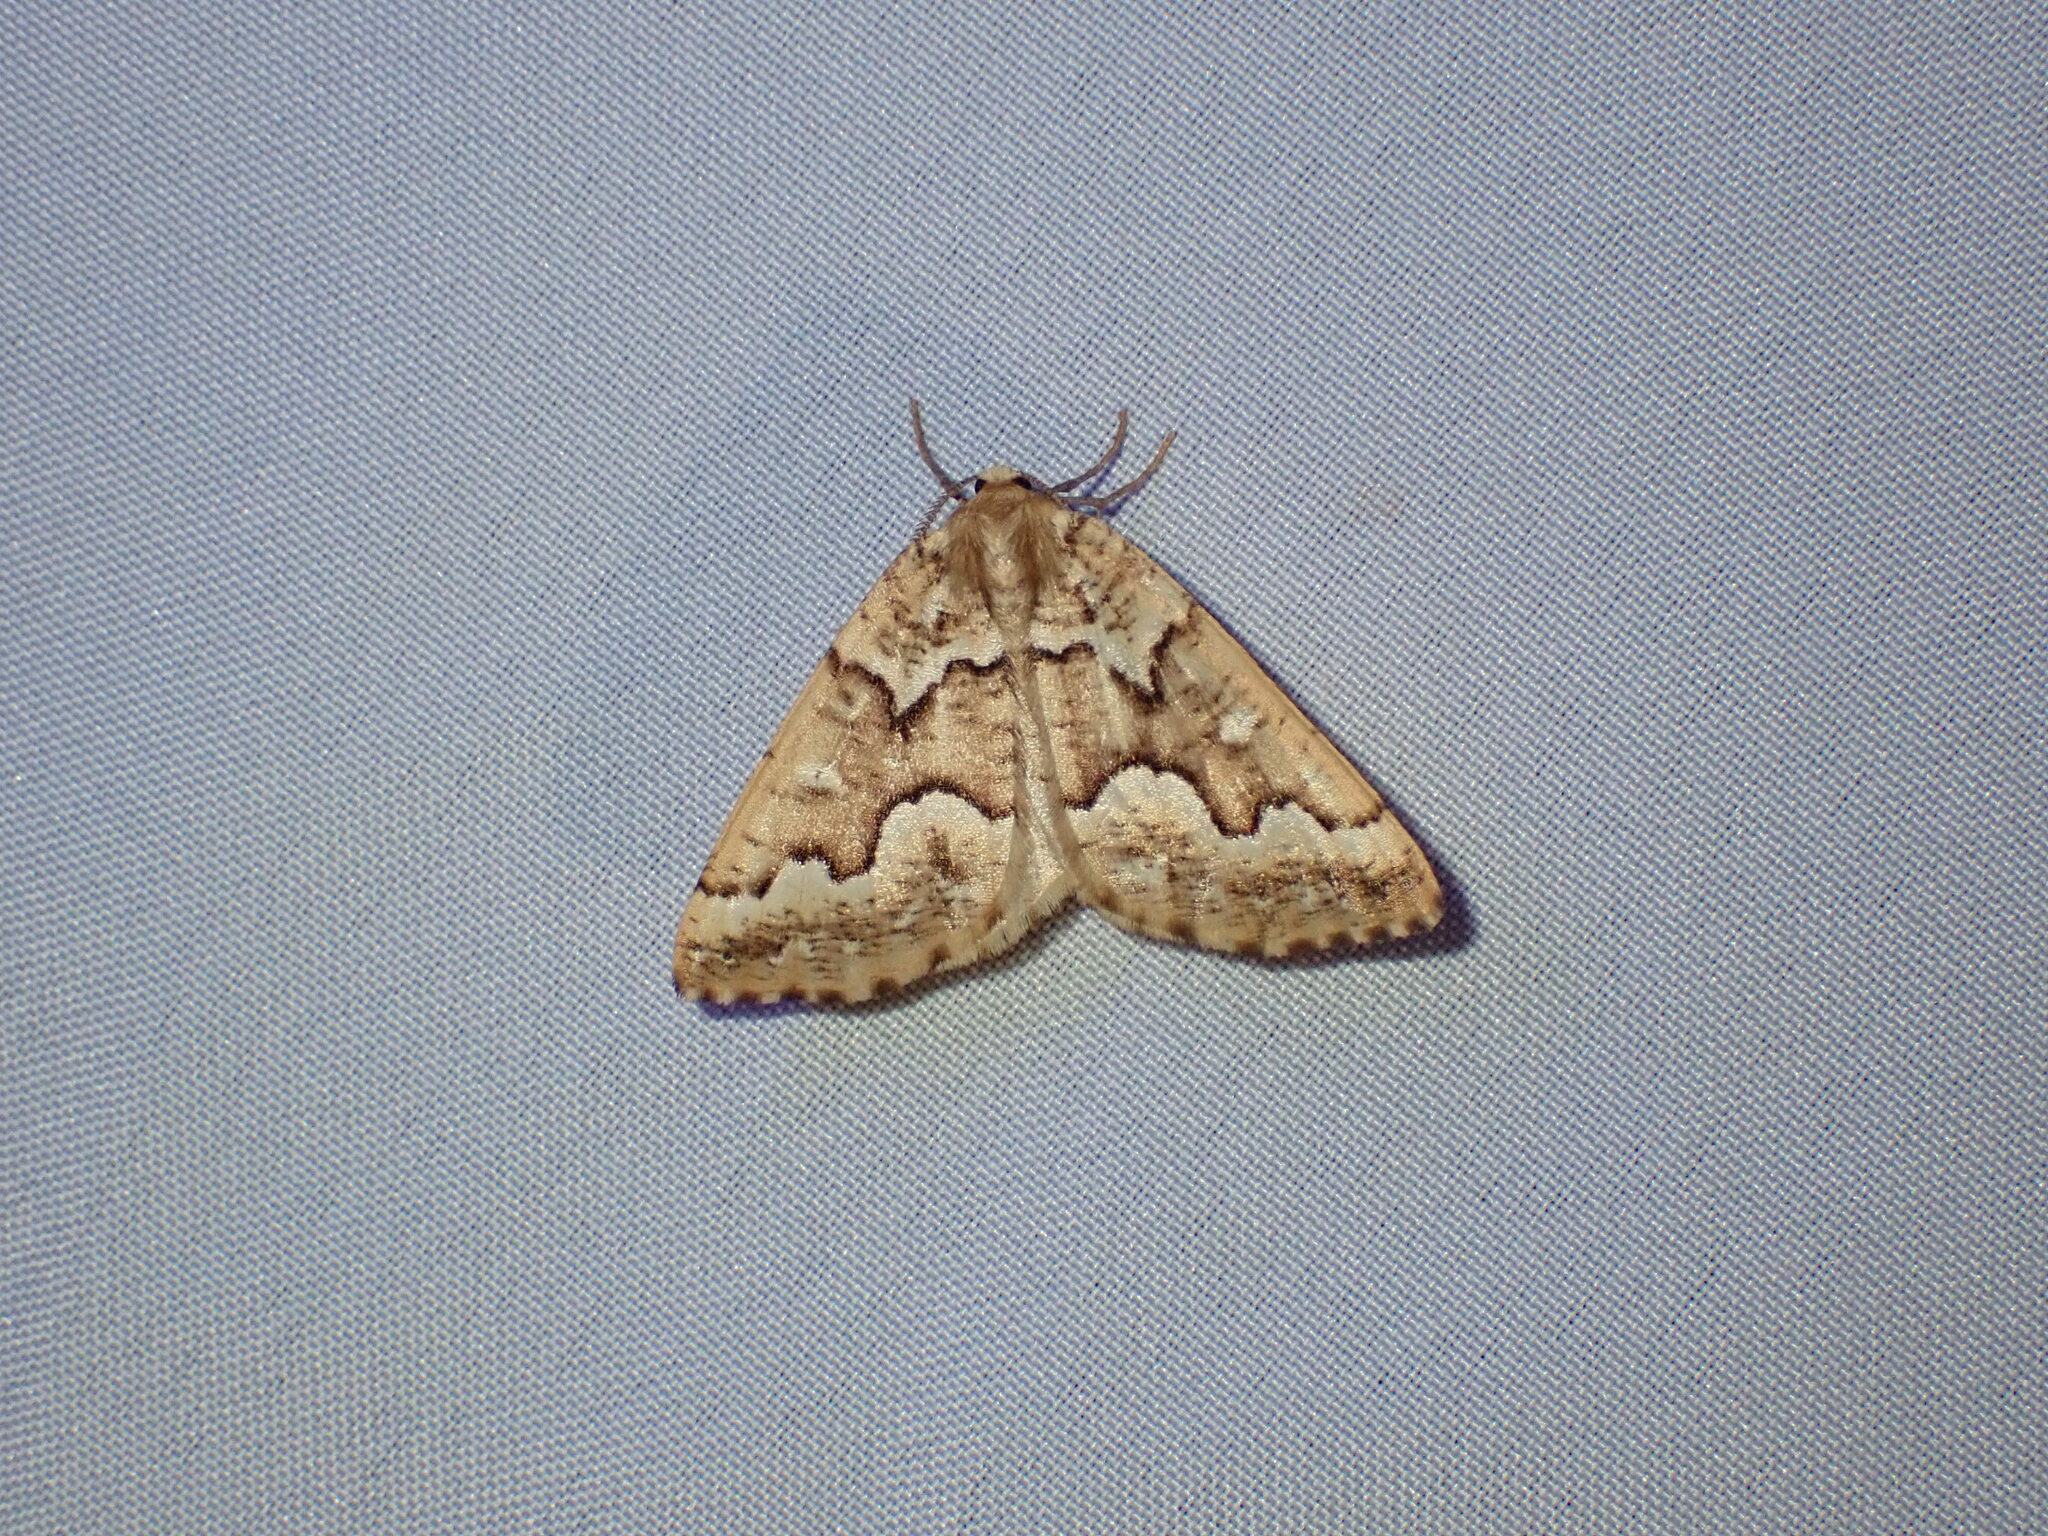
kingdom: Animalia
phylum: Arthropoda
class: Insecta
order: Lepidoptera
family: Geometridae
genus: Caripeta
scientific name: Caripeta divisata
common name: Gray spruce looper
